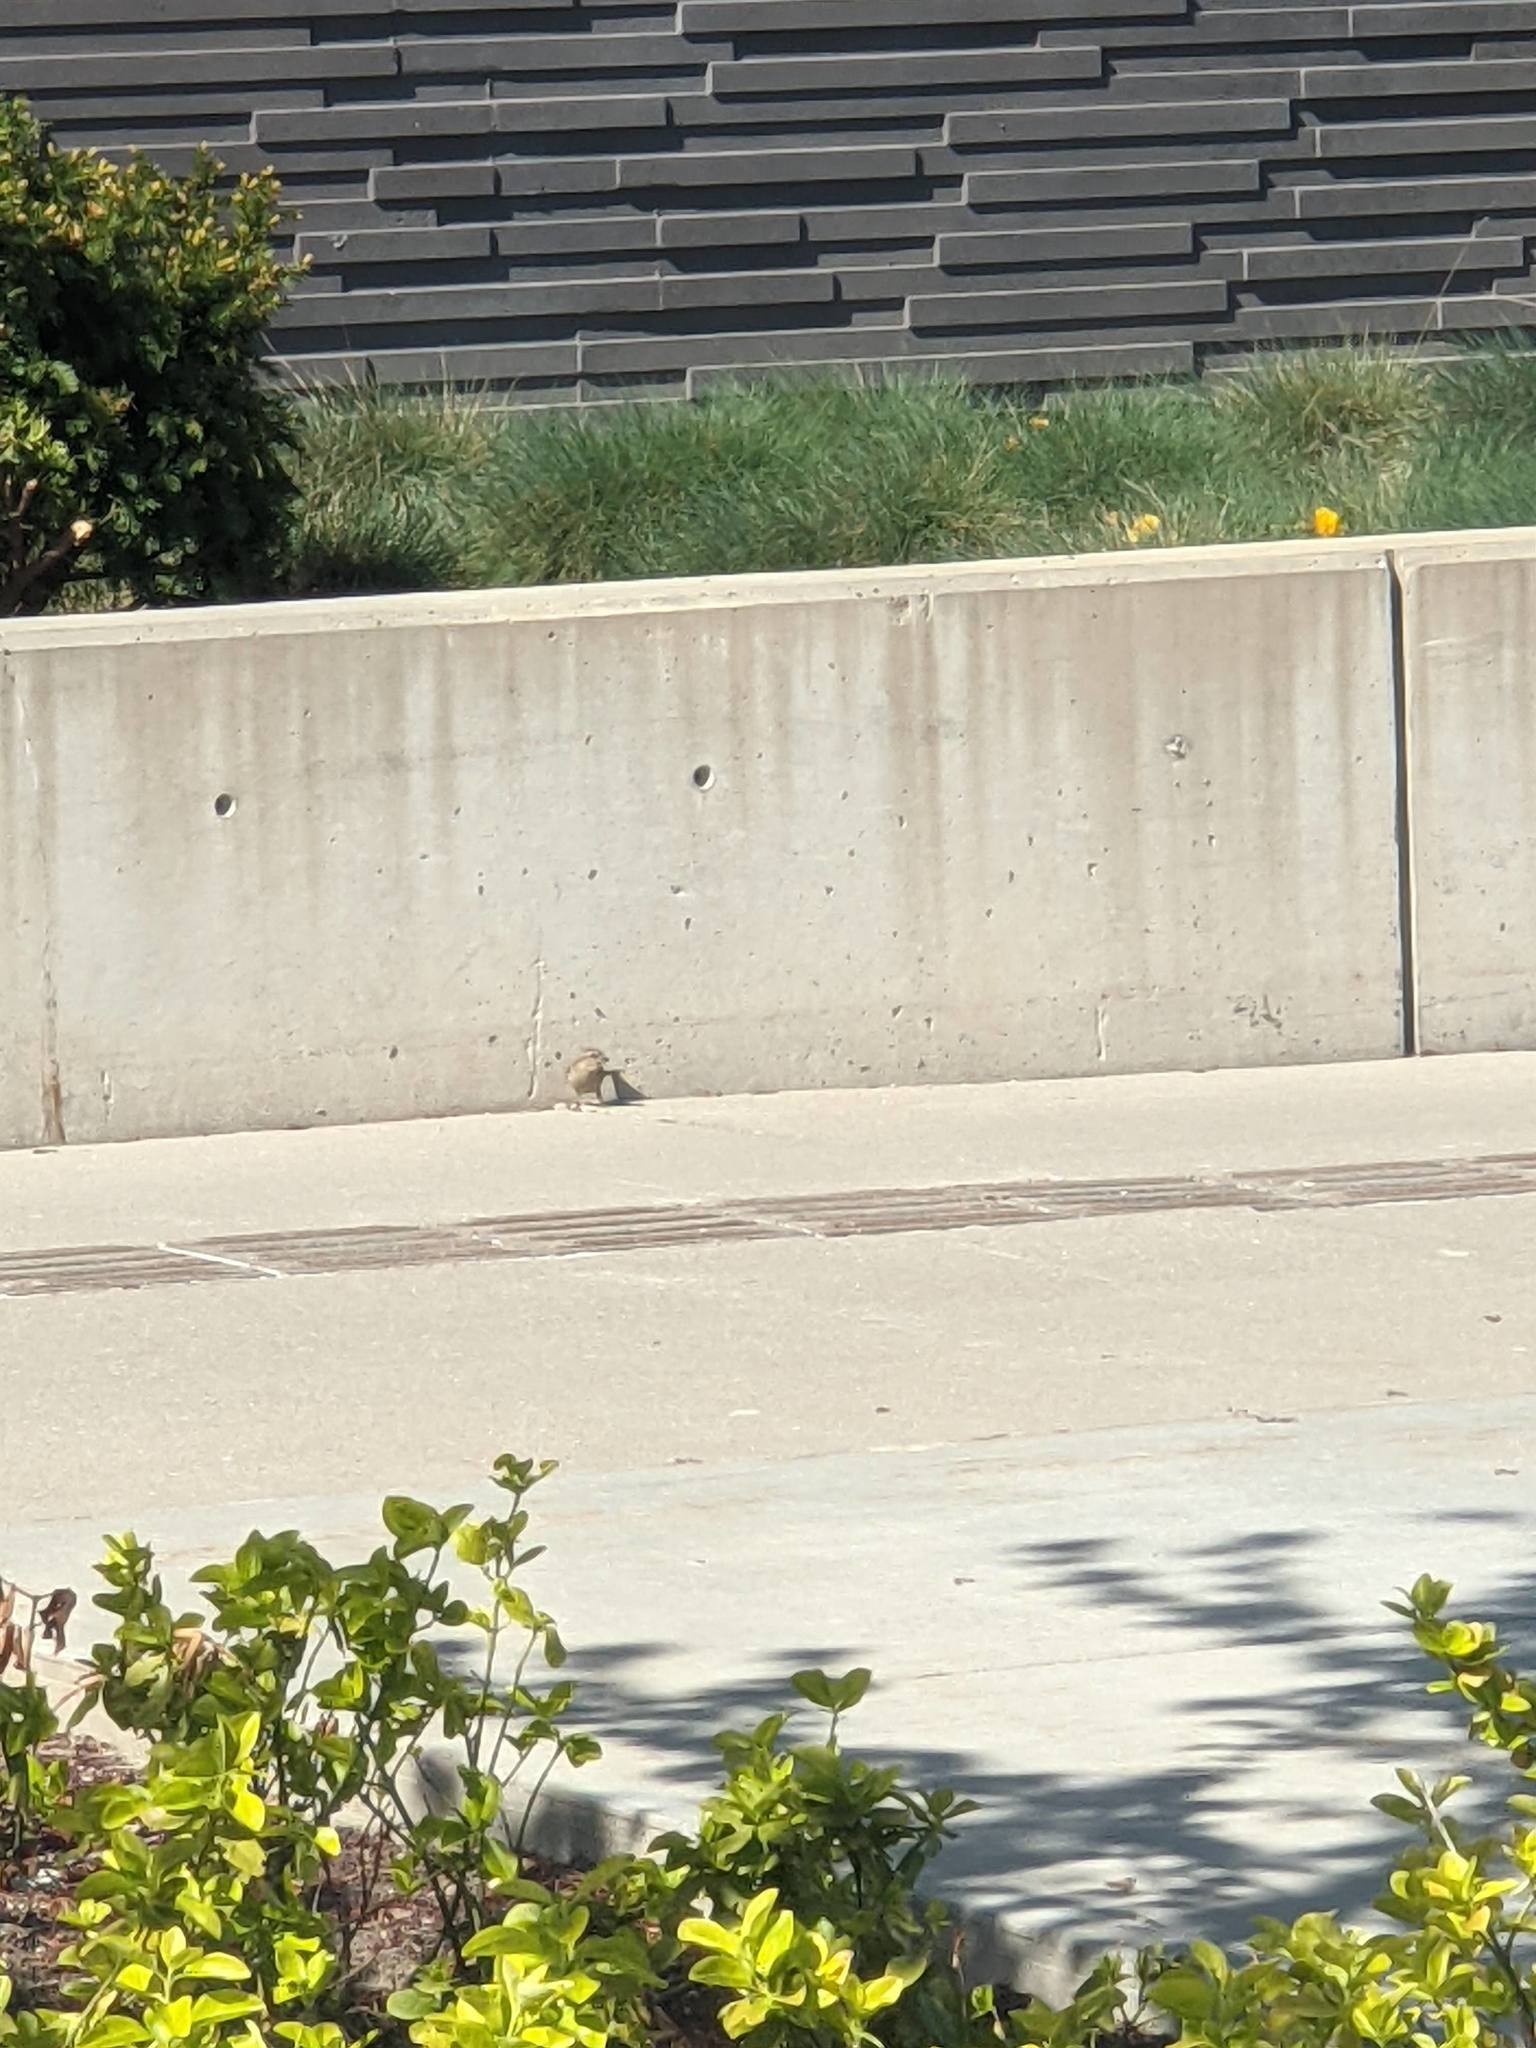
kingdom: Animalia
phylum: Chordata
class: Aves
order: Passeriformes
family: Passeridae
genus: Passer
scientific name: Passer domesticus
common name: House sparrow
